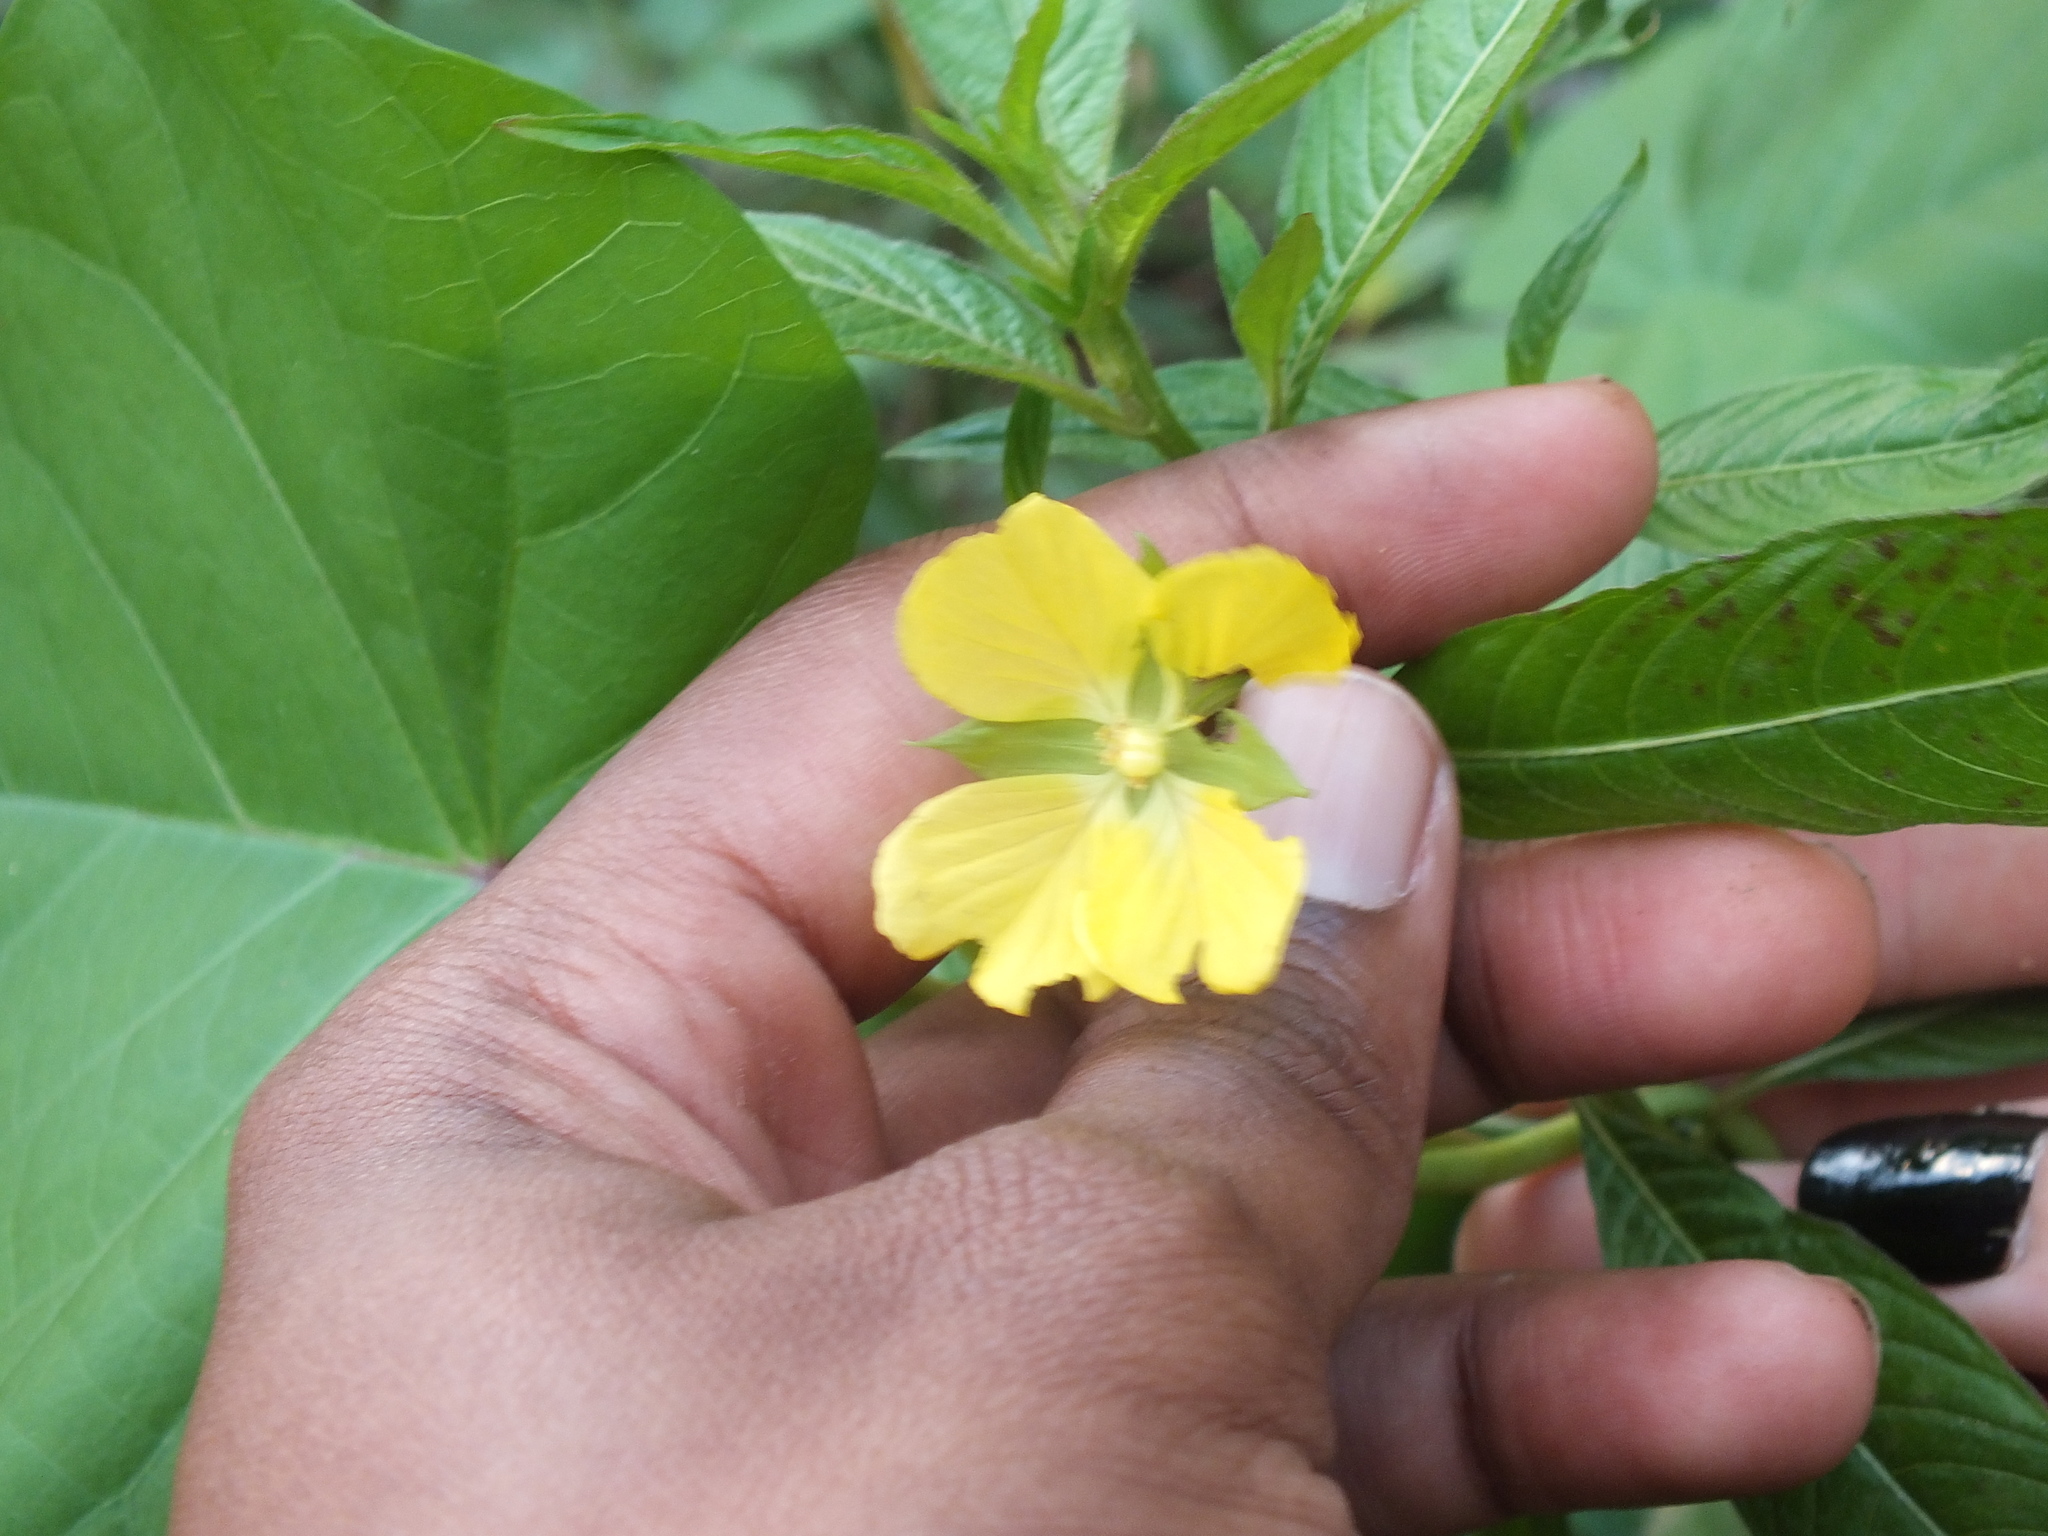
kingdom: Plantae
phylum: Tracheophyta
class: Magnoliopsida
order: Myrtales
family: Onagraceae
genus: Ludwigia
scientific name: Ludwigia octovalvis
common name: Water-primrose
